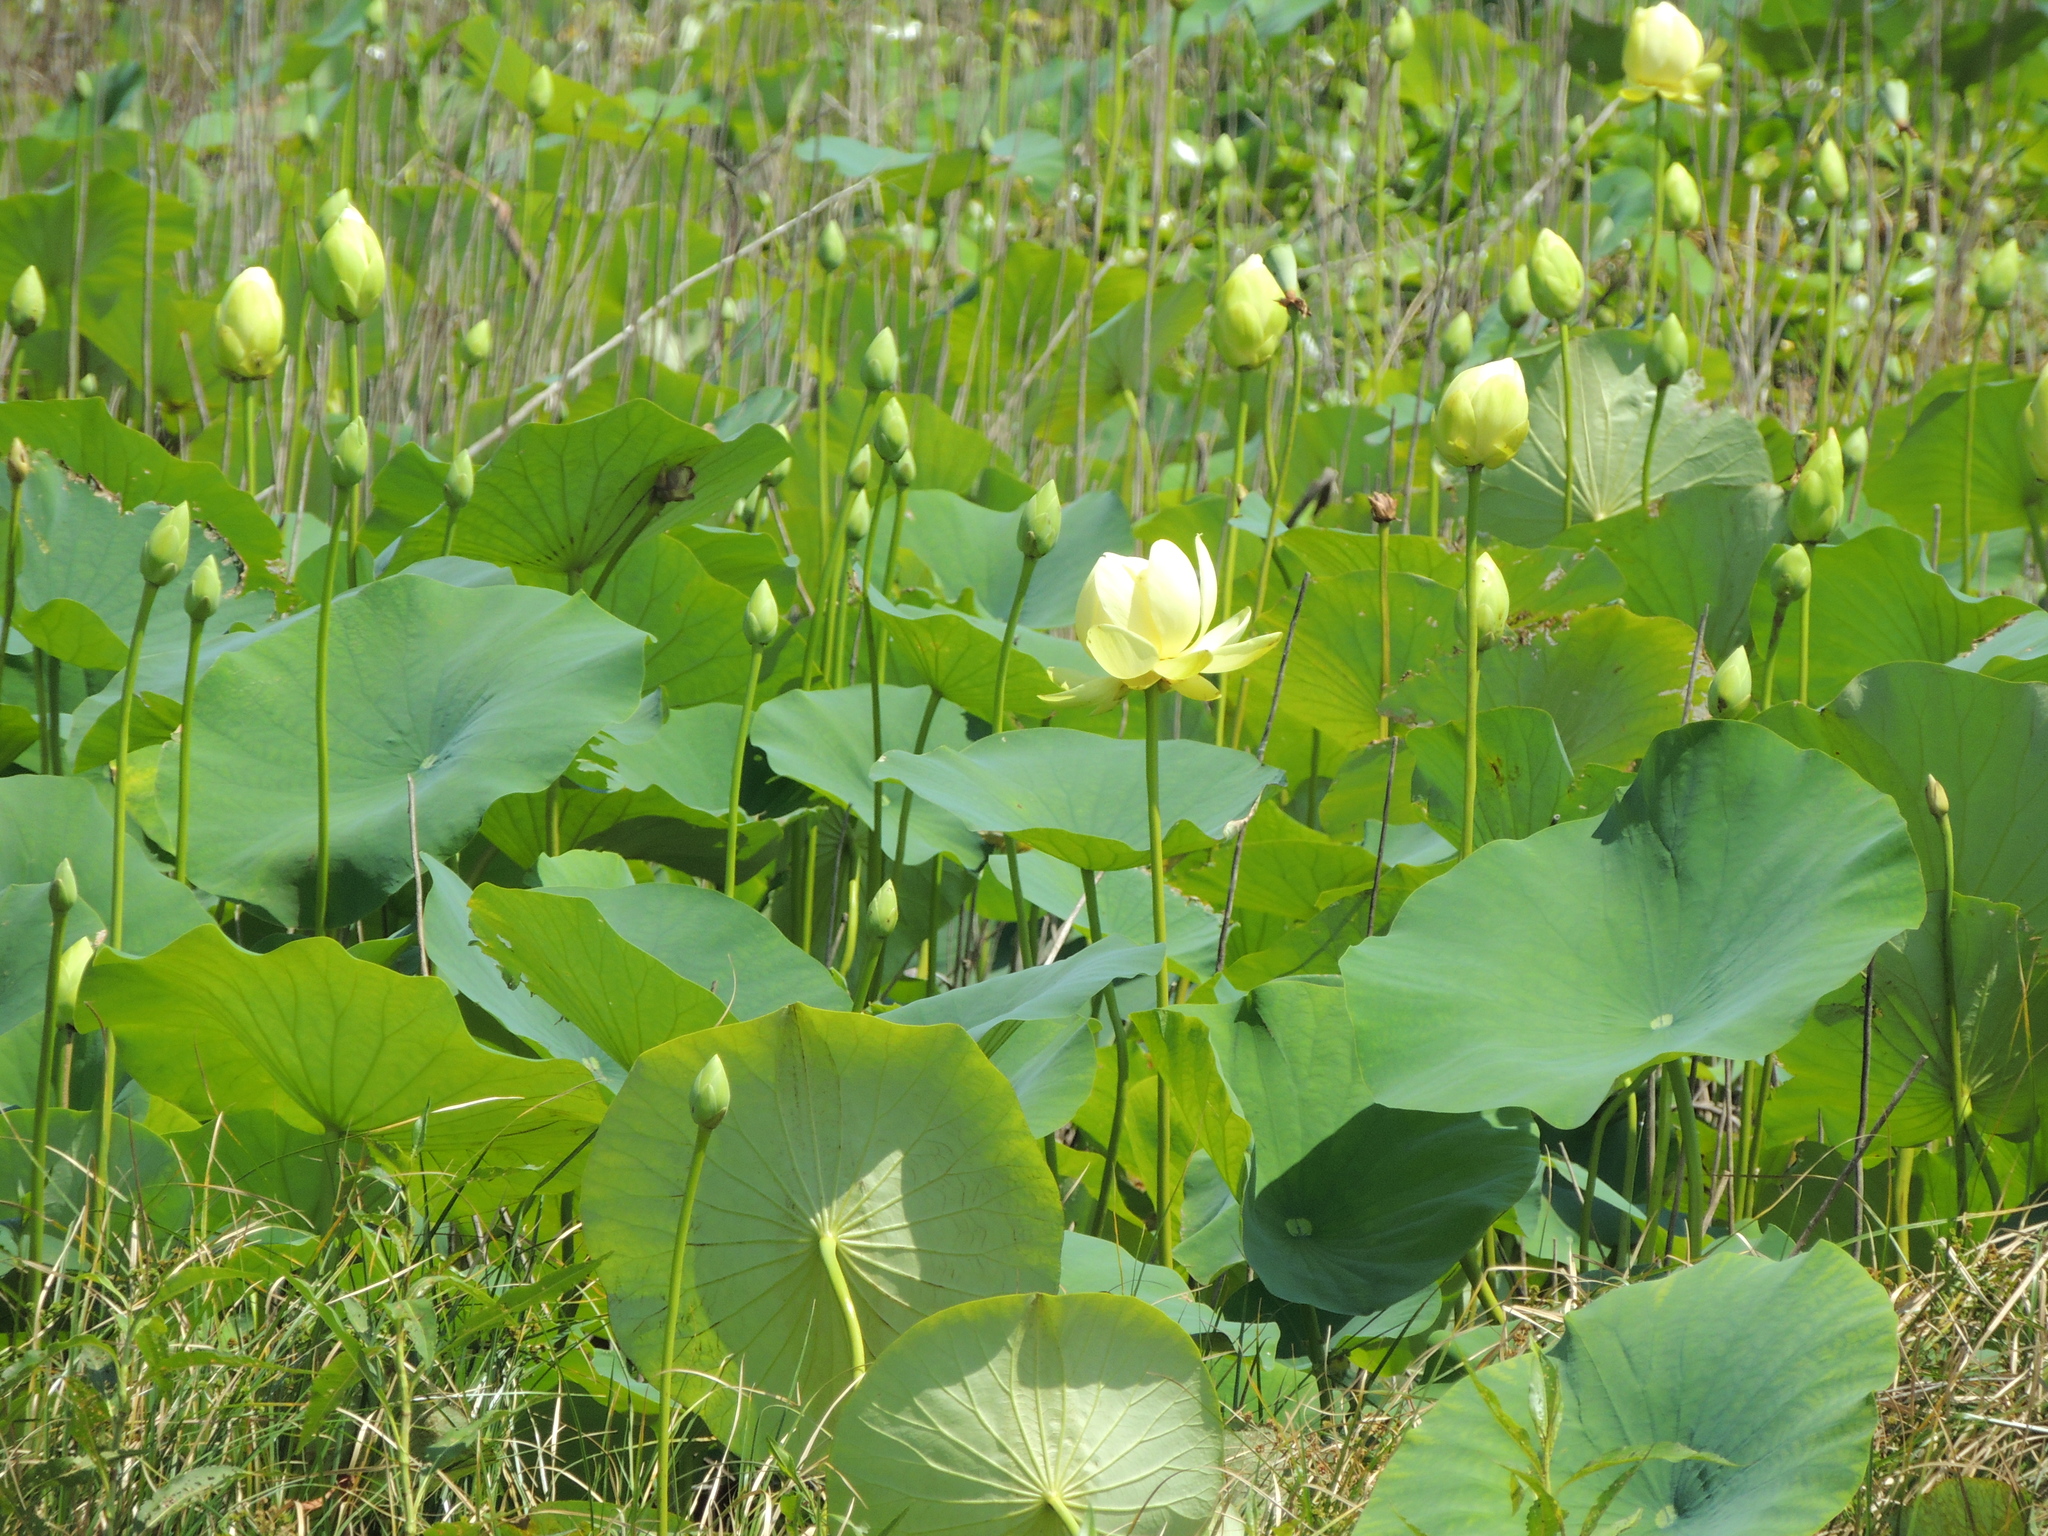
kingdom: Plantae
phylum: Tracheophyta
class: Magnoliopsida
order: Proteales
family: Nelumbonaceae
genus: Nelumbo
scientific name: Nelumbo lutea
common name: American lotus
